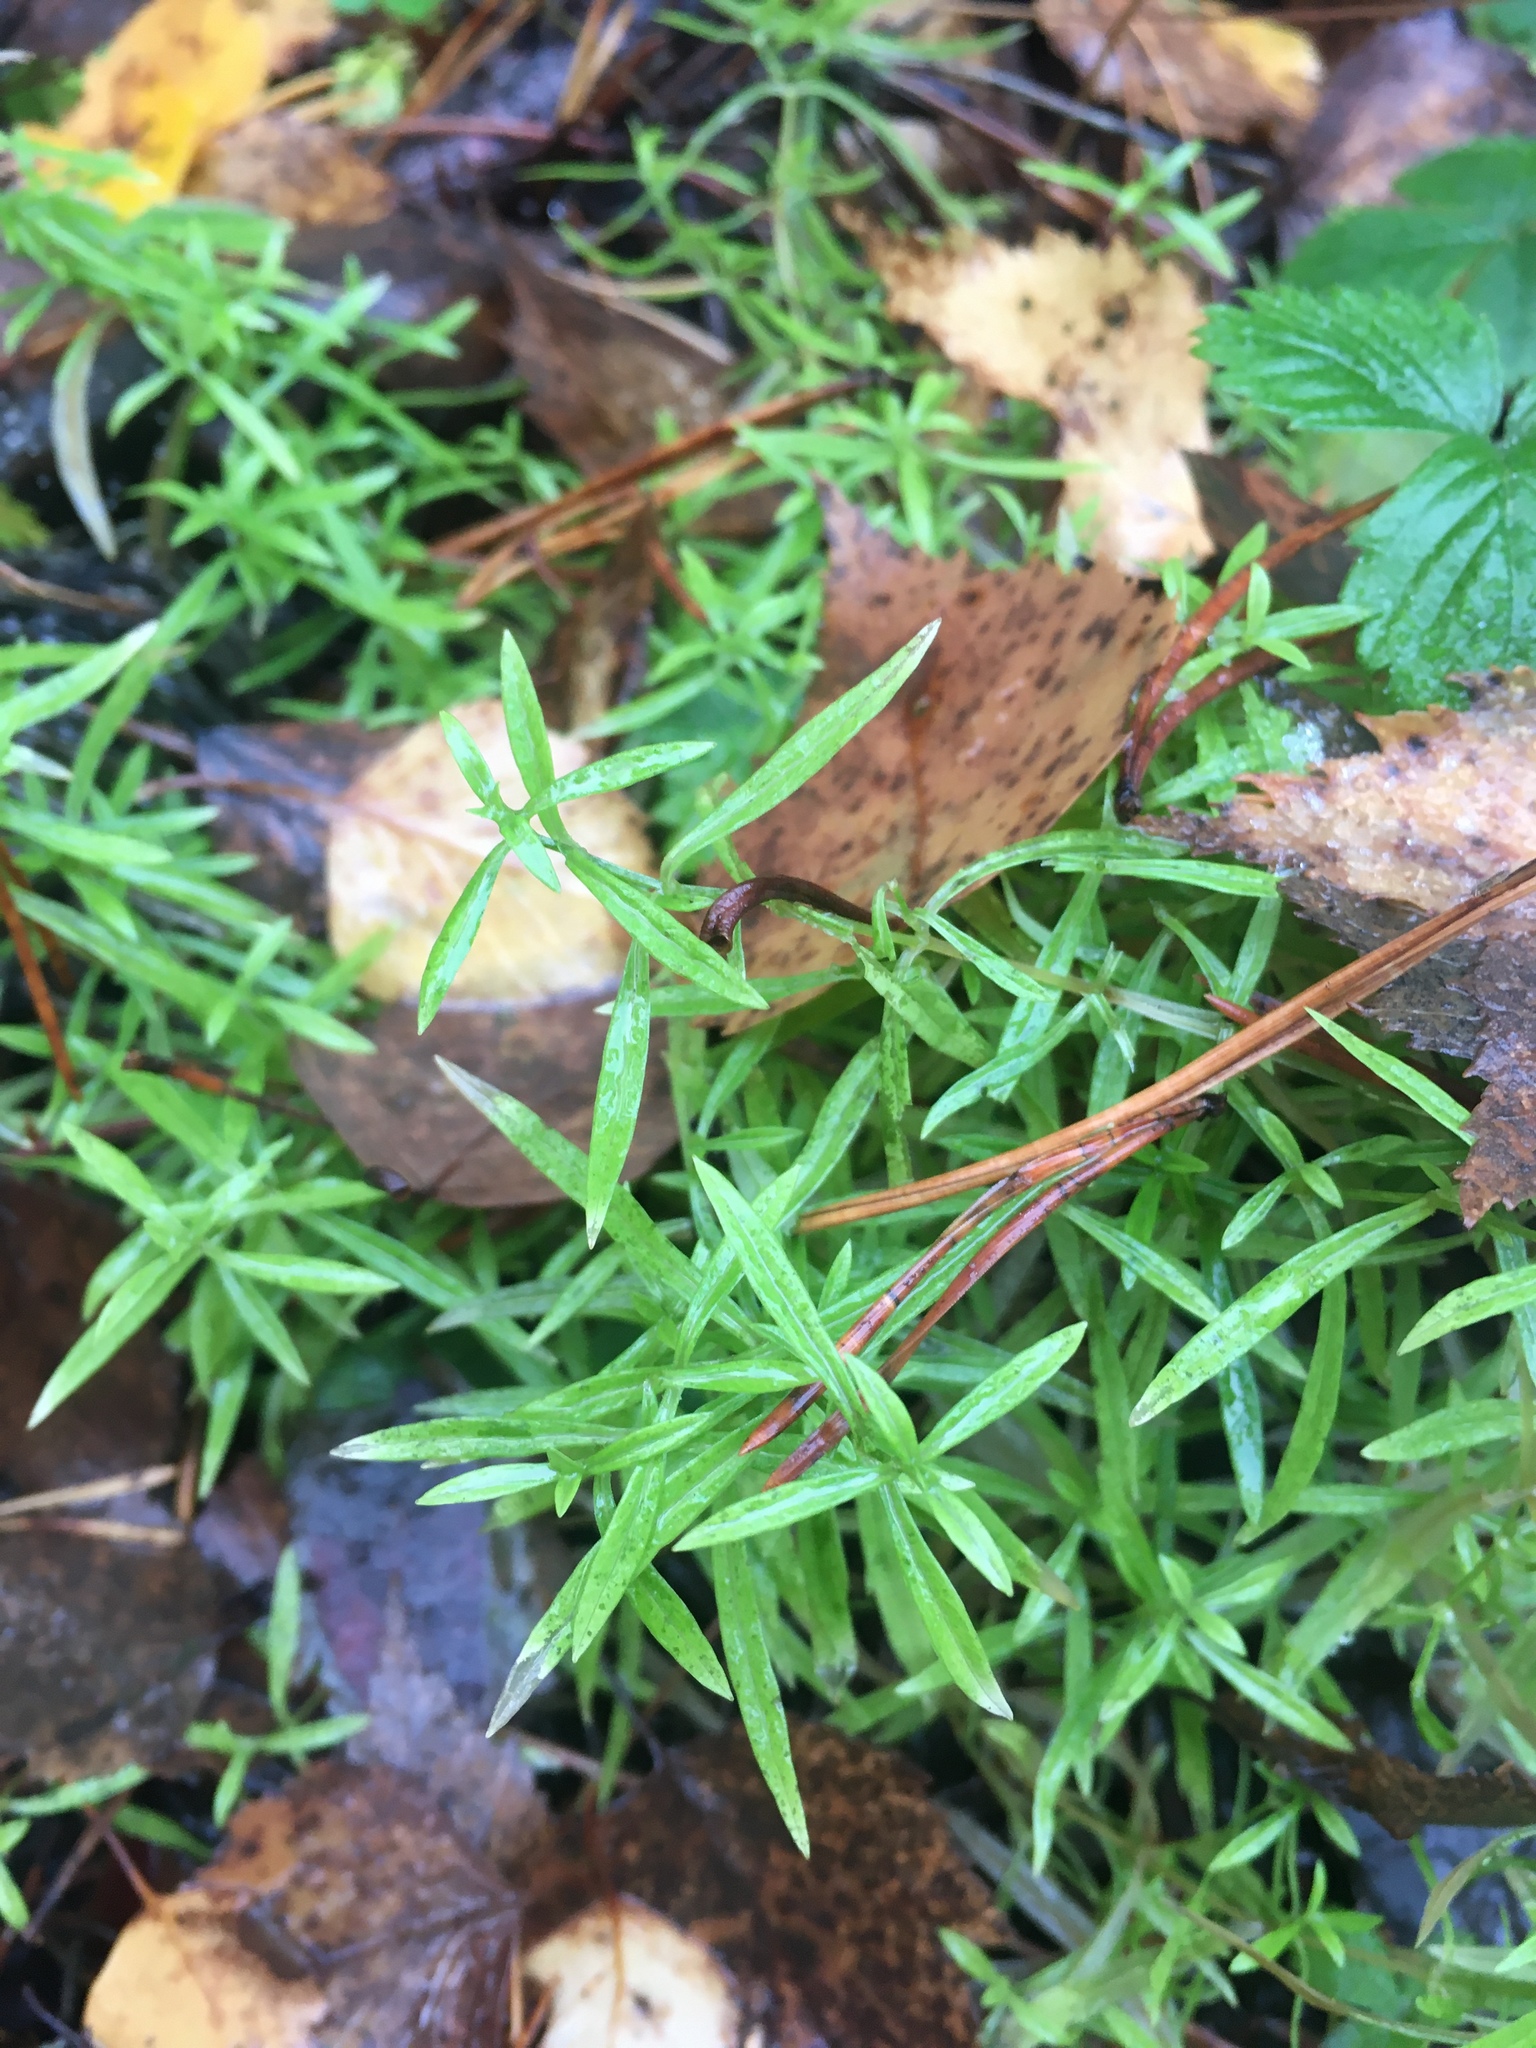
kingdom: Plantae
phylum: Tracheophyta
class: Magnoliopsida
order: Caryophyllales
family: Caryophyllaceae
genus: Rabelera
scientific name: Rabelera holostea
